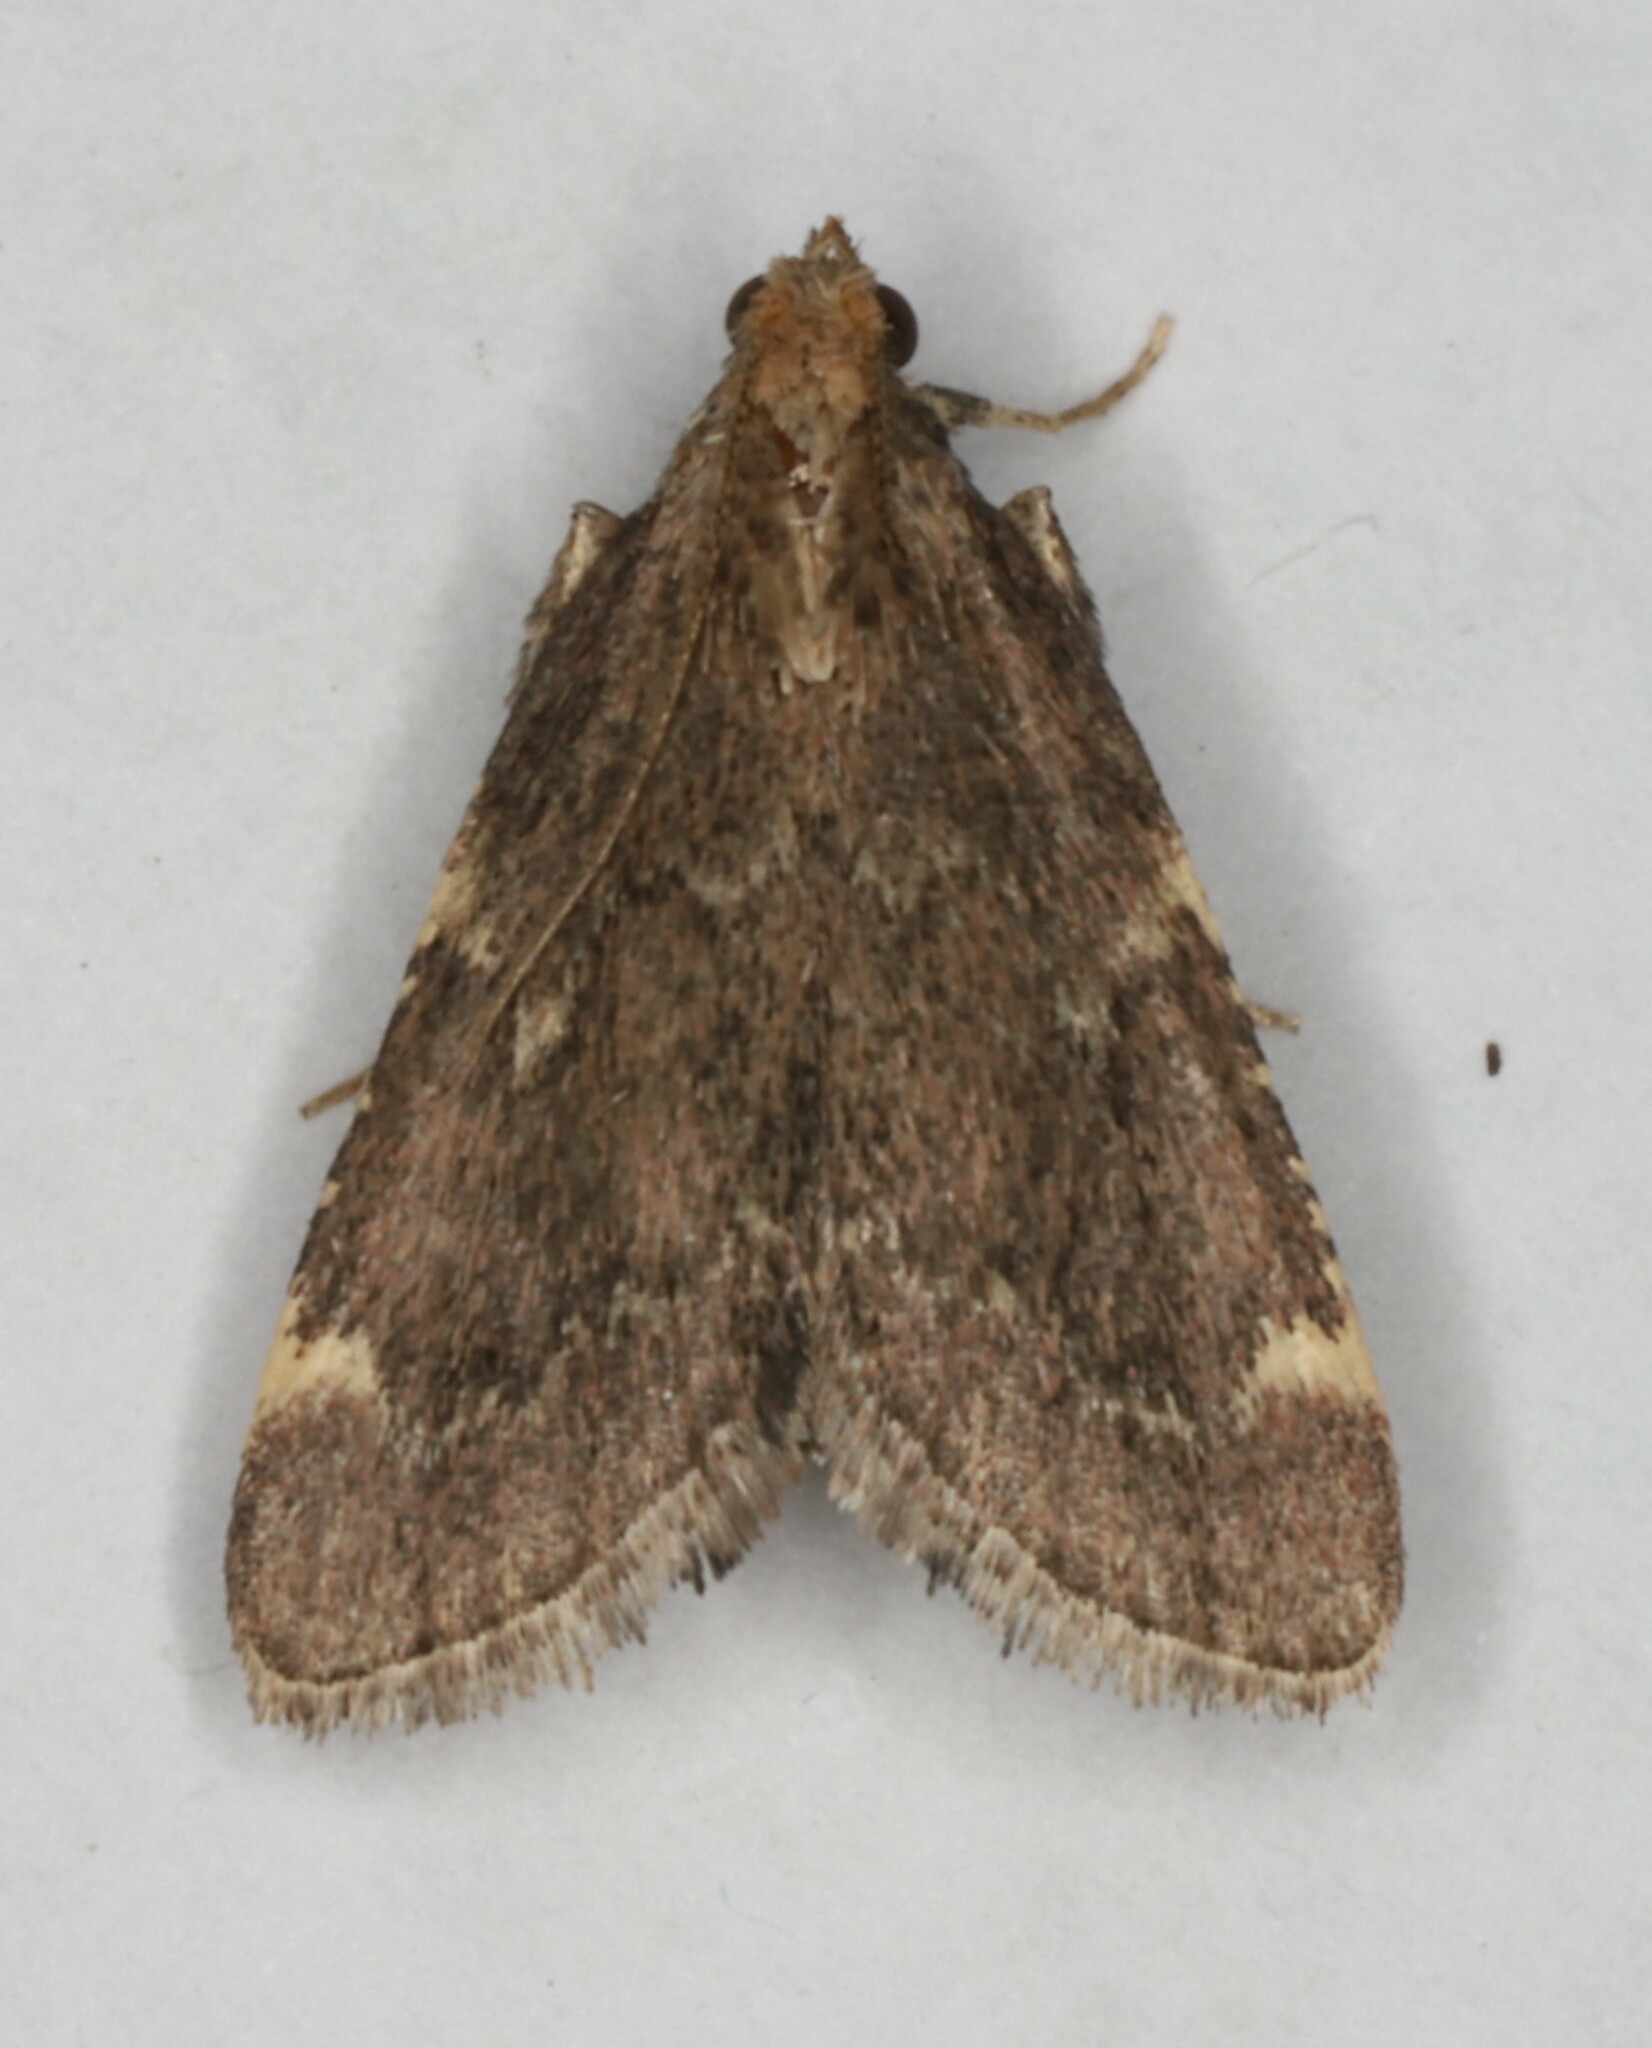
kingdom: Animalia
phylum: Arthropoda
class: Insecta
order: Lepidoptera
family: Pyralidae
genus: Hypsopygia
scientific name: Hypsopygia intermedialis
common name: Red-shawled moth
